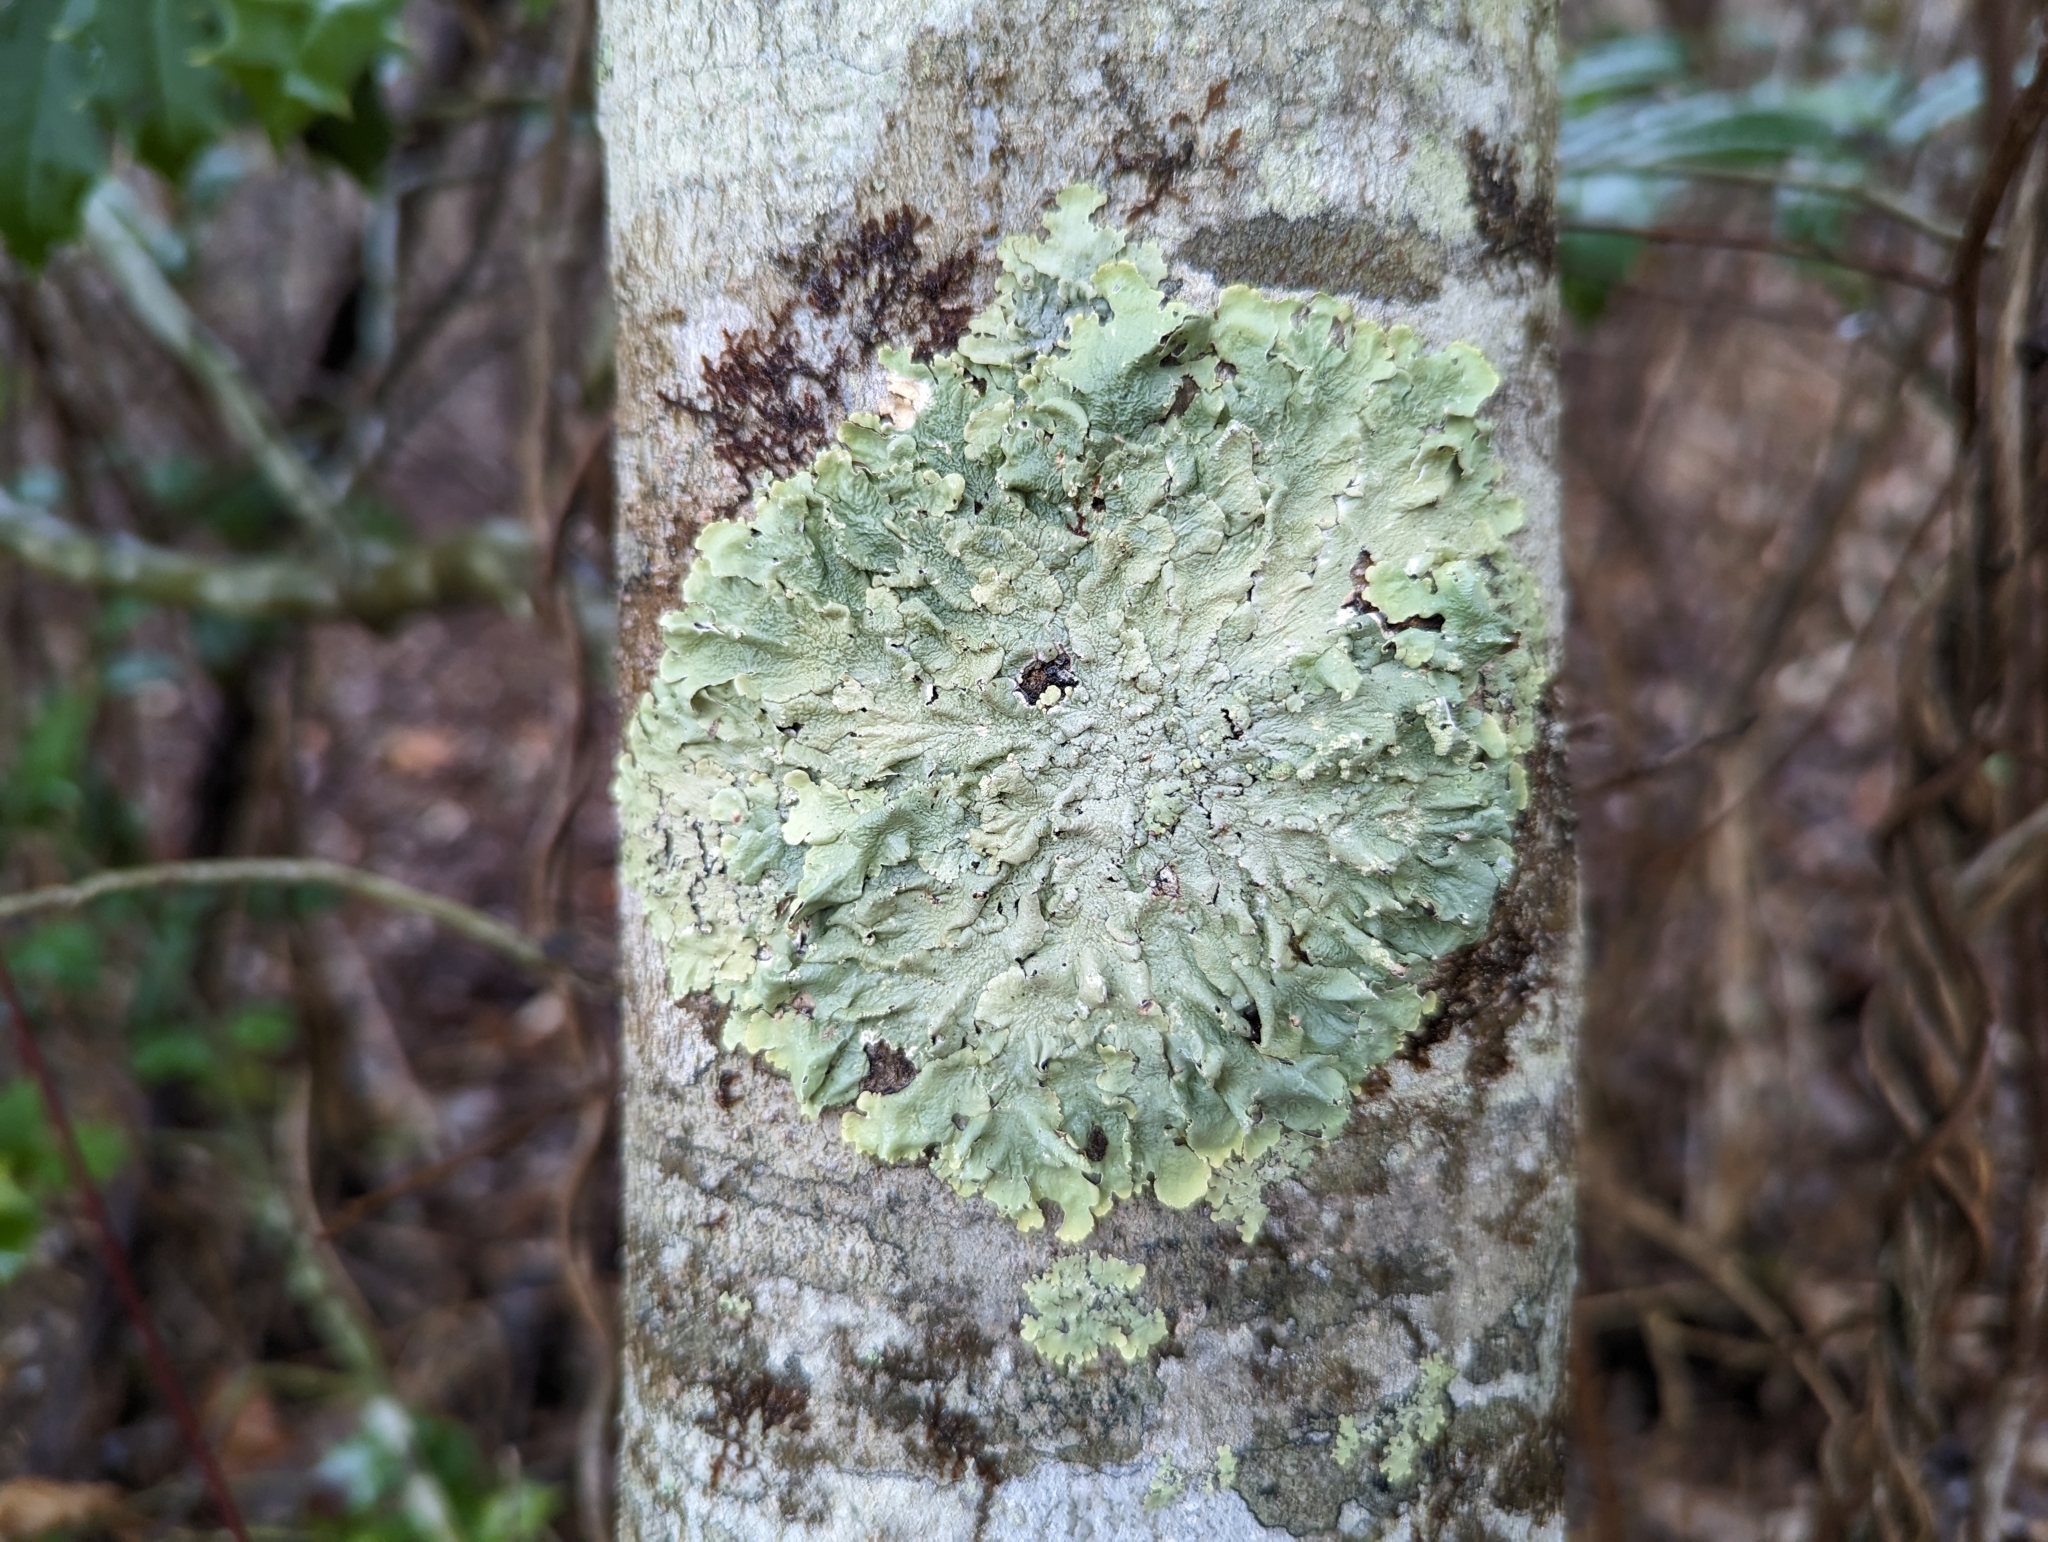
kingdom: Fungi
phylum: Ascomycota
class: Lecanoromycetes
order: Lecanorales
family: Parmeliaceae
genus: Flavoparmelia
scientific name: Flavoparmelia caperata
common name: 40-mile per hour lichen
